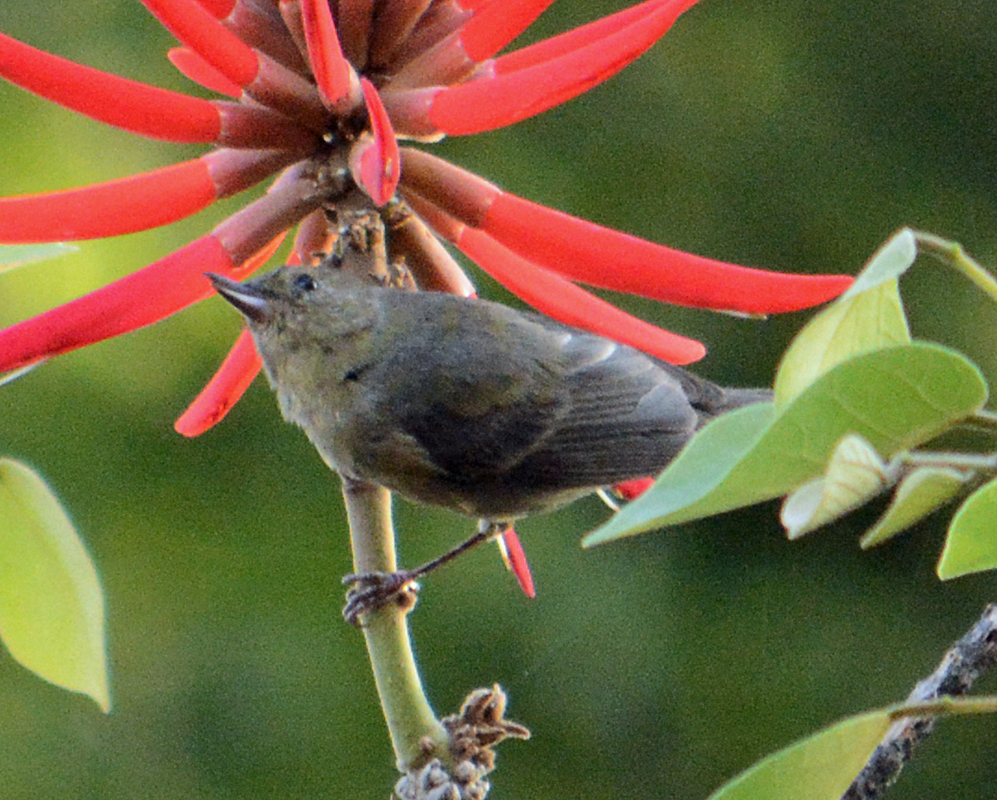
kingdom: Animalia
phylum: Chordata
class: Aves
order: Passeriformes
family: Thraupidae
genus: Diglossa
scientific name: Diglossa baritula
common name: Cinnamon-bellied flowerpiercer
